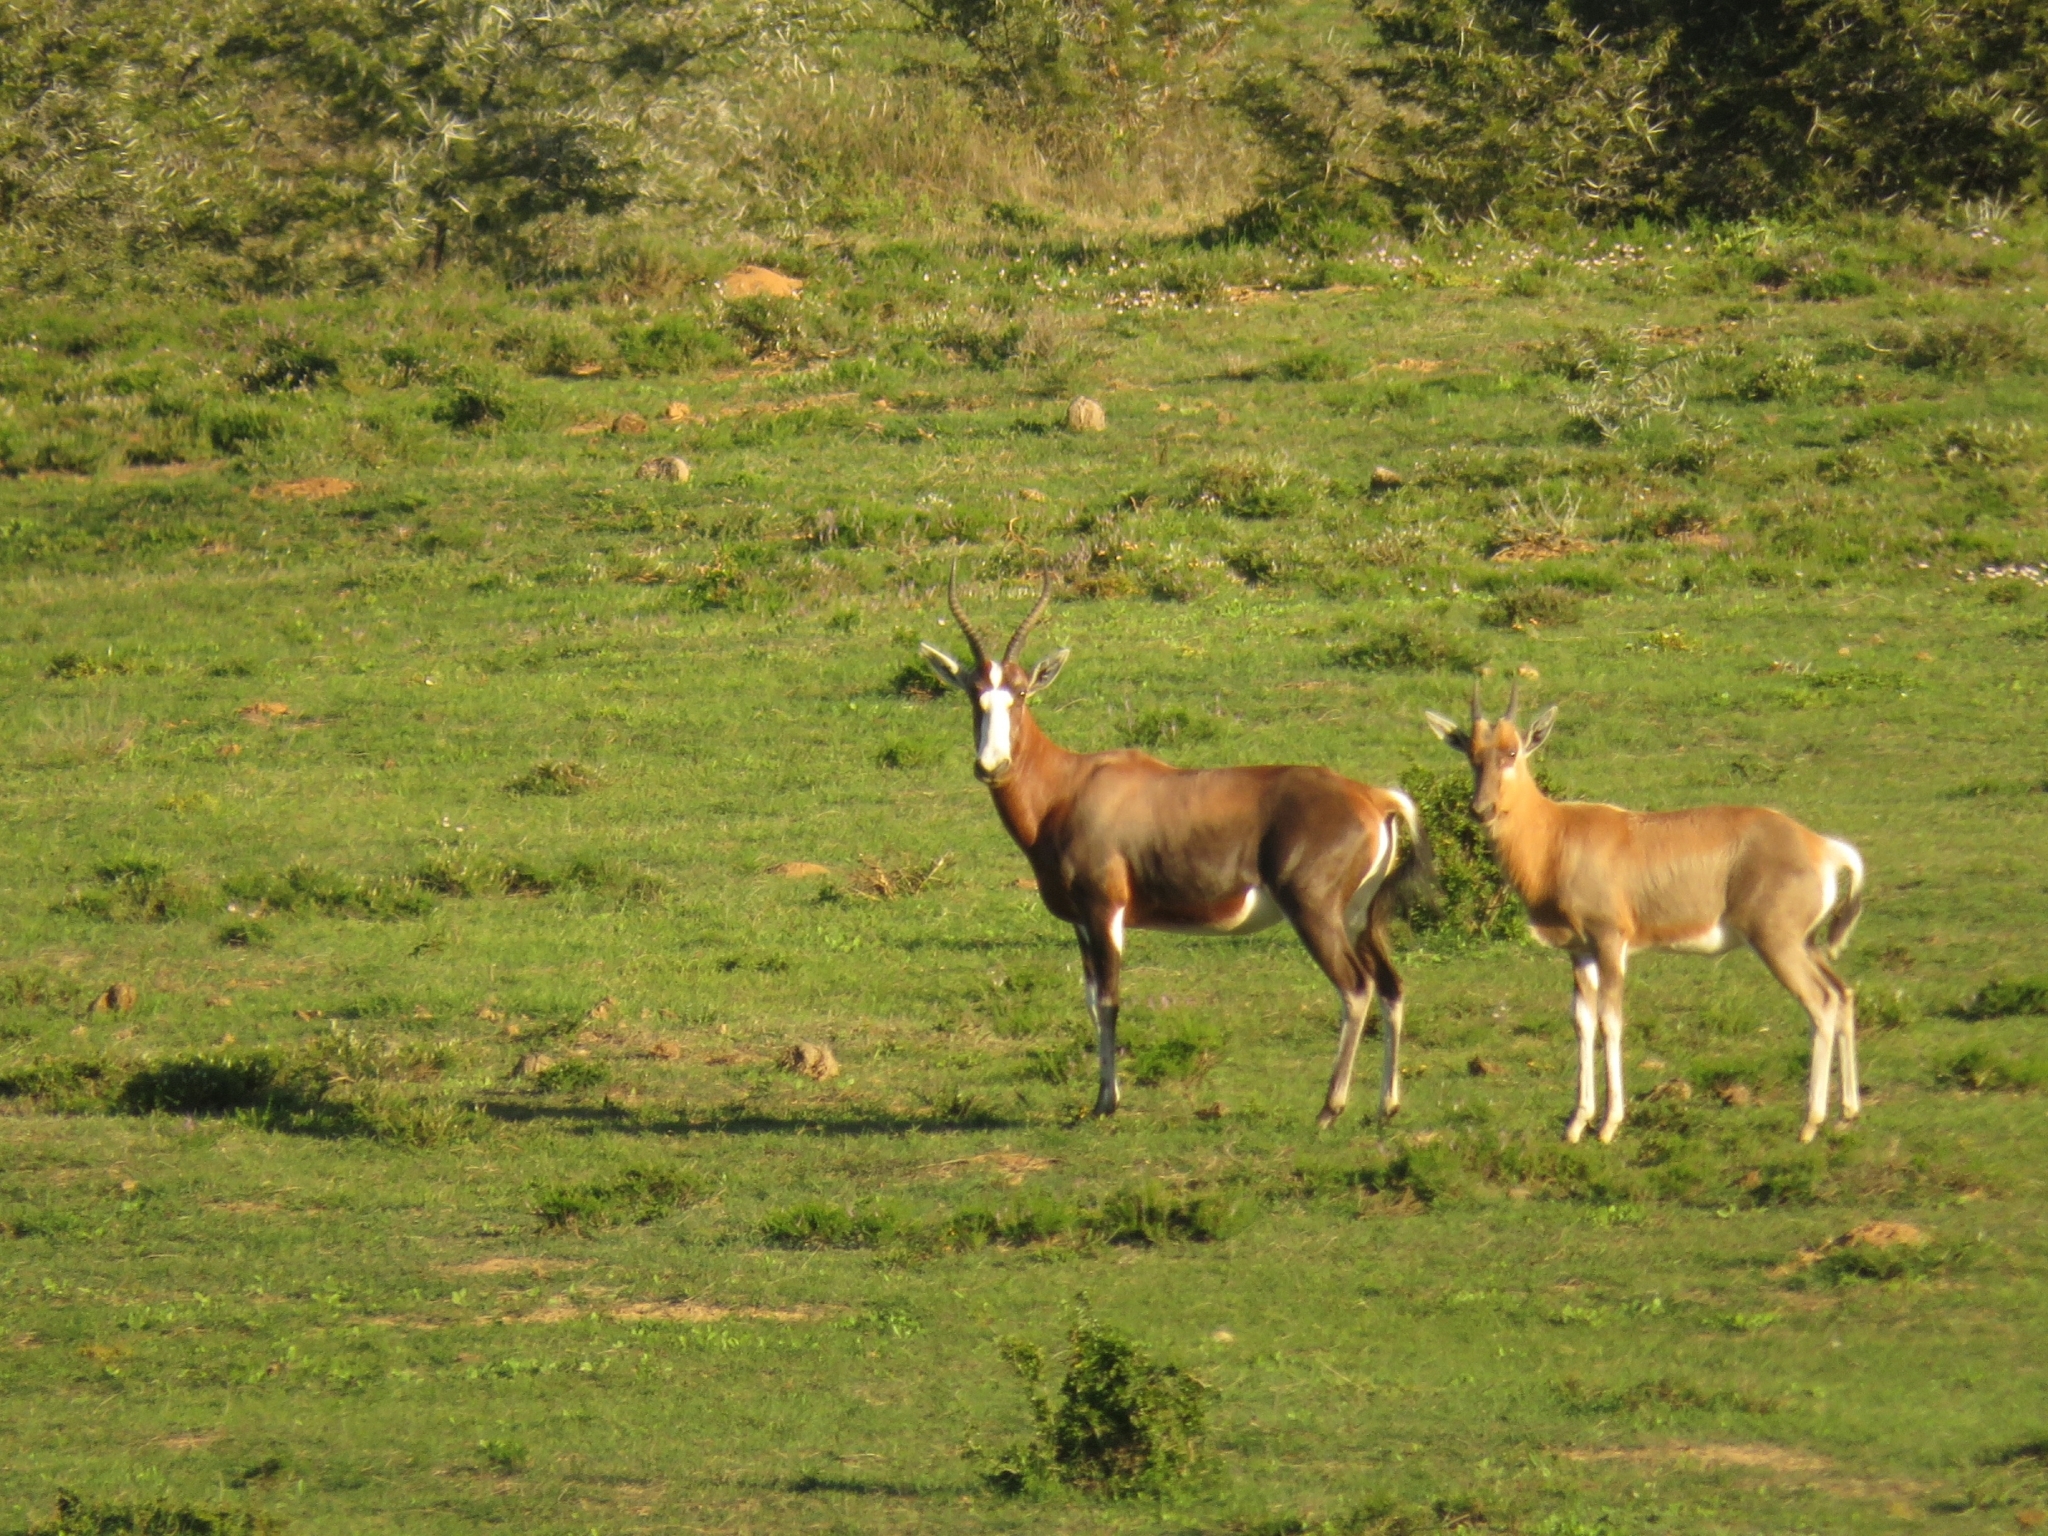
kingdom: Animalia
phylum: Chordata
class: Mammalia
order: Artiodactyla
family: Bovidae
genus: Damaliscus
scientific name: Damaliscus pygargus
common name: Bontebok
